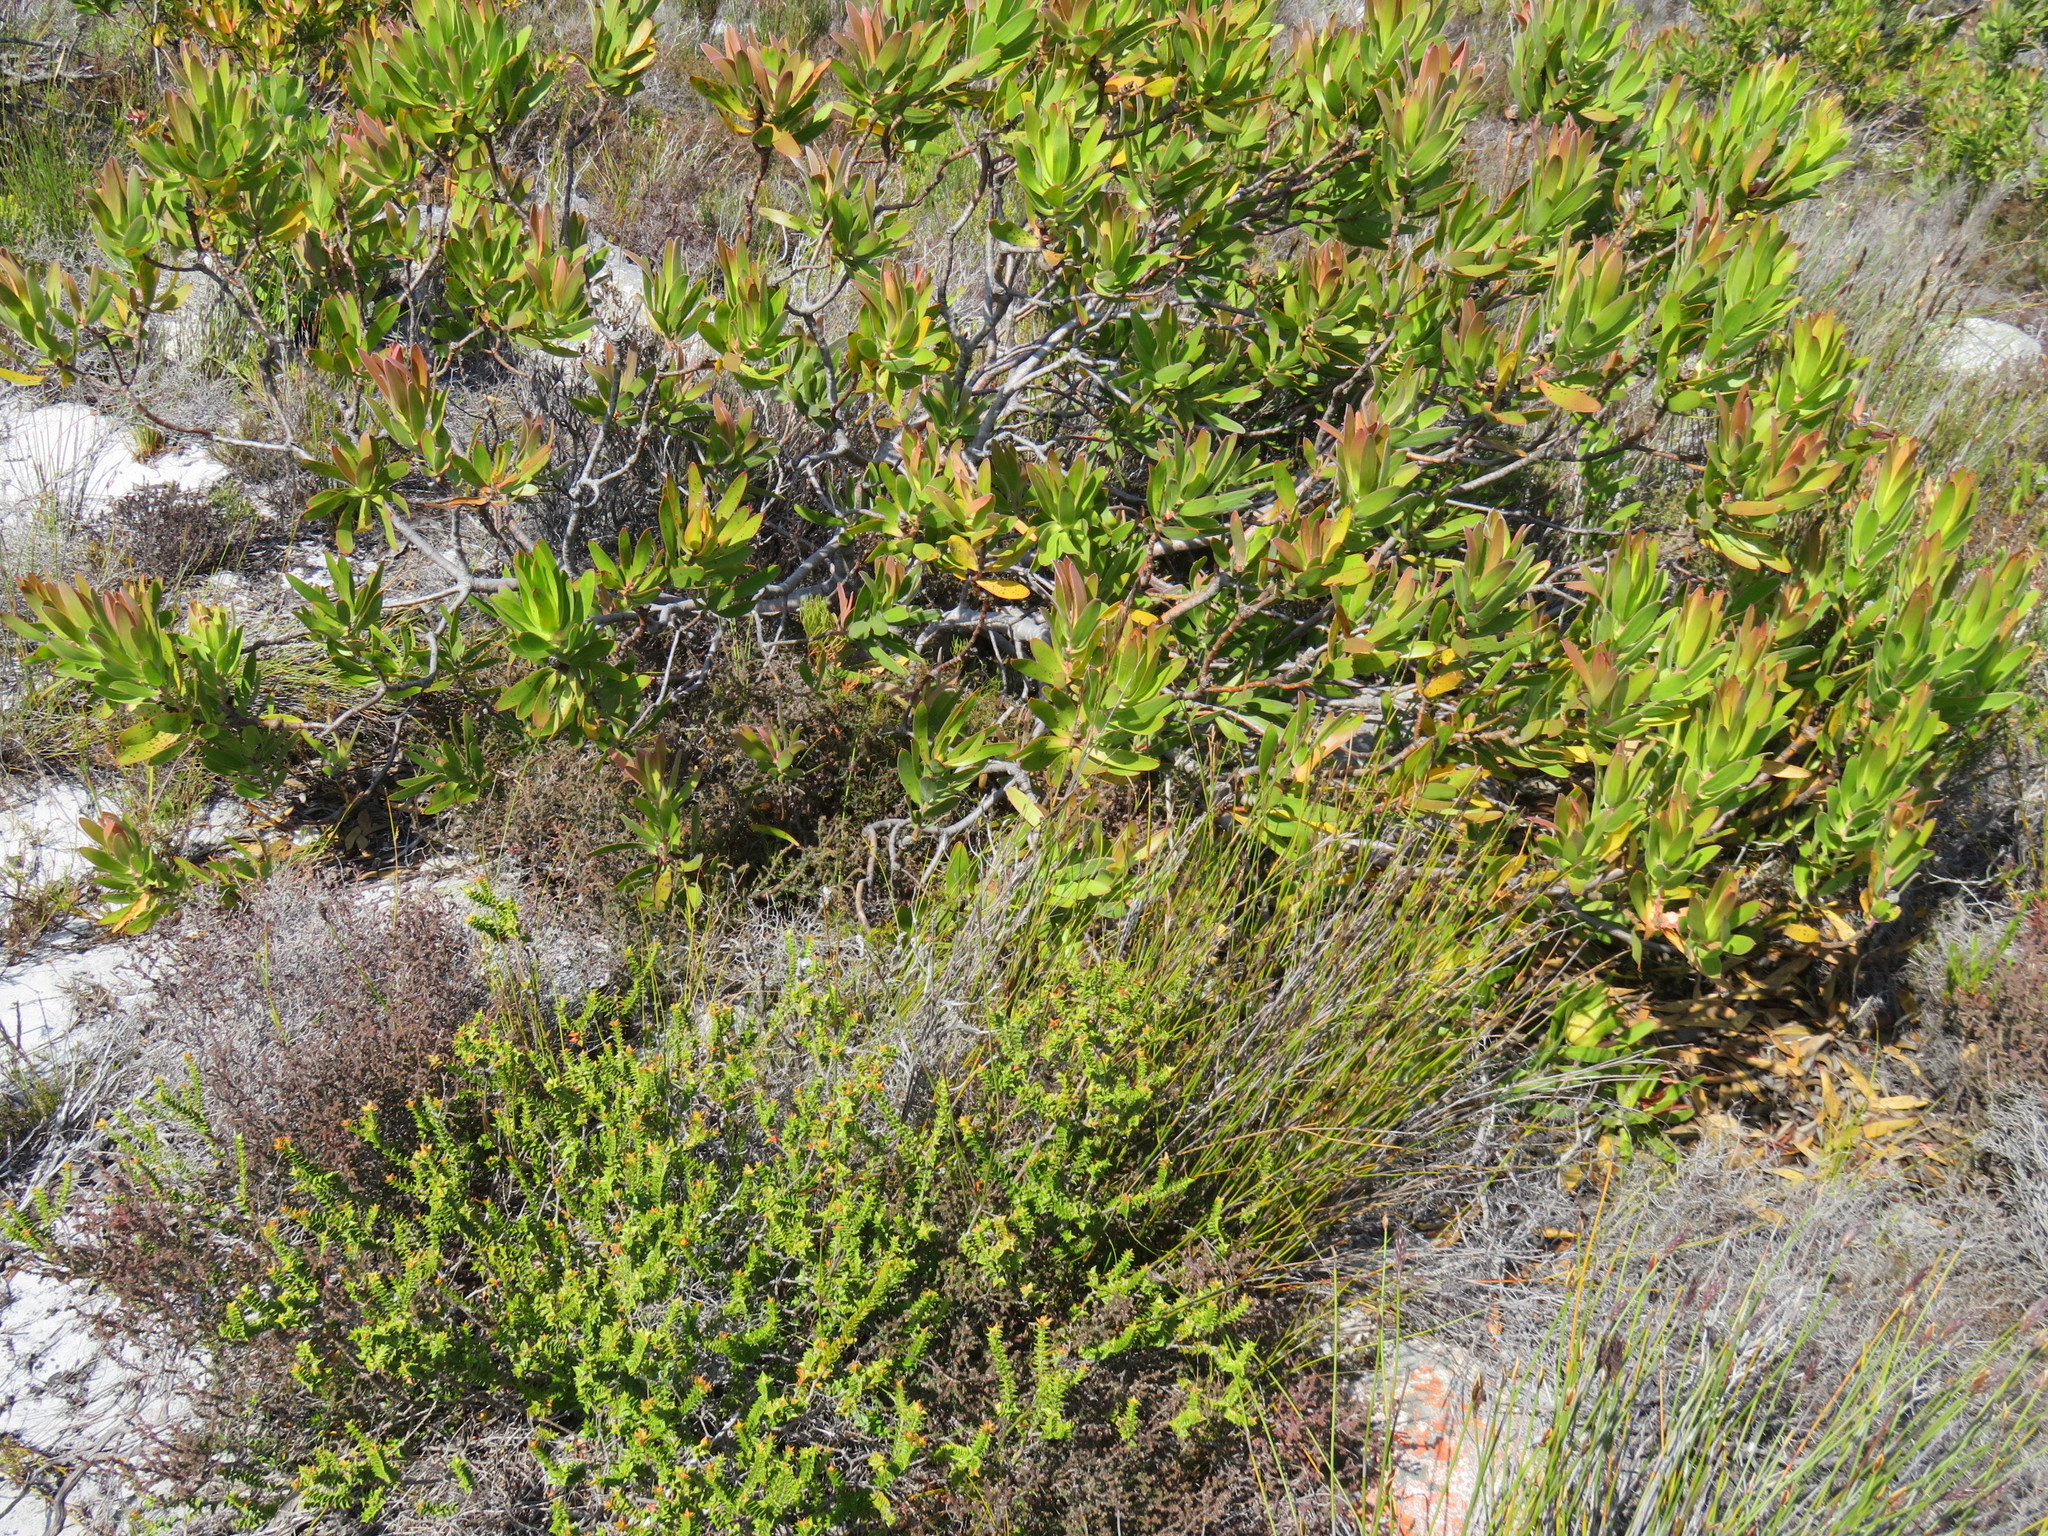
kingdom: Plantae
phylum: Tracheophyta
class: Magnoliopsida
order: Myrtales
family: Penaeaceae
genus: Penaea
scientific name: Penaea mucronata
